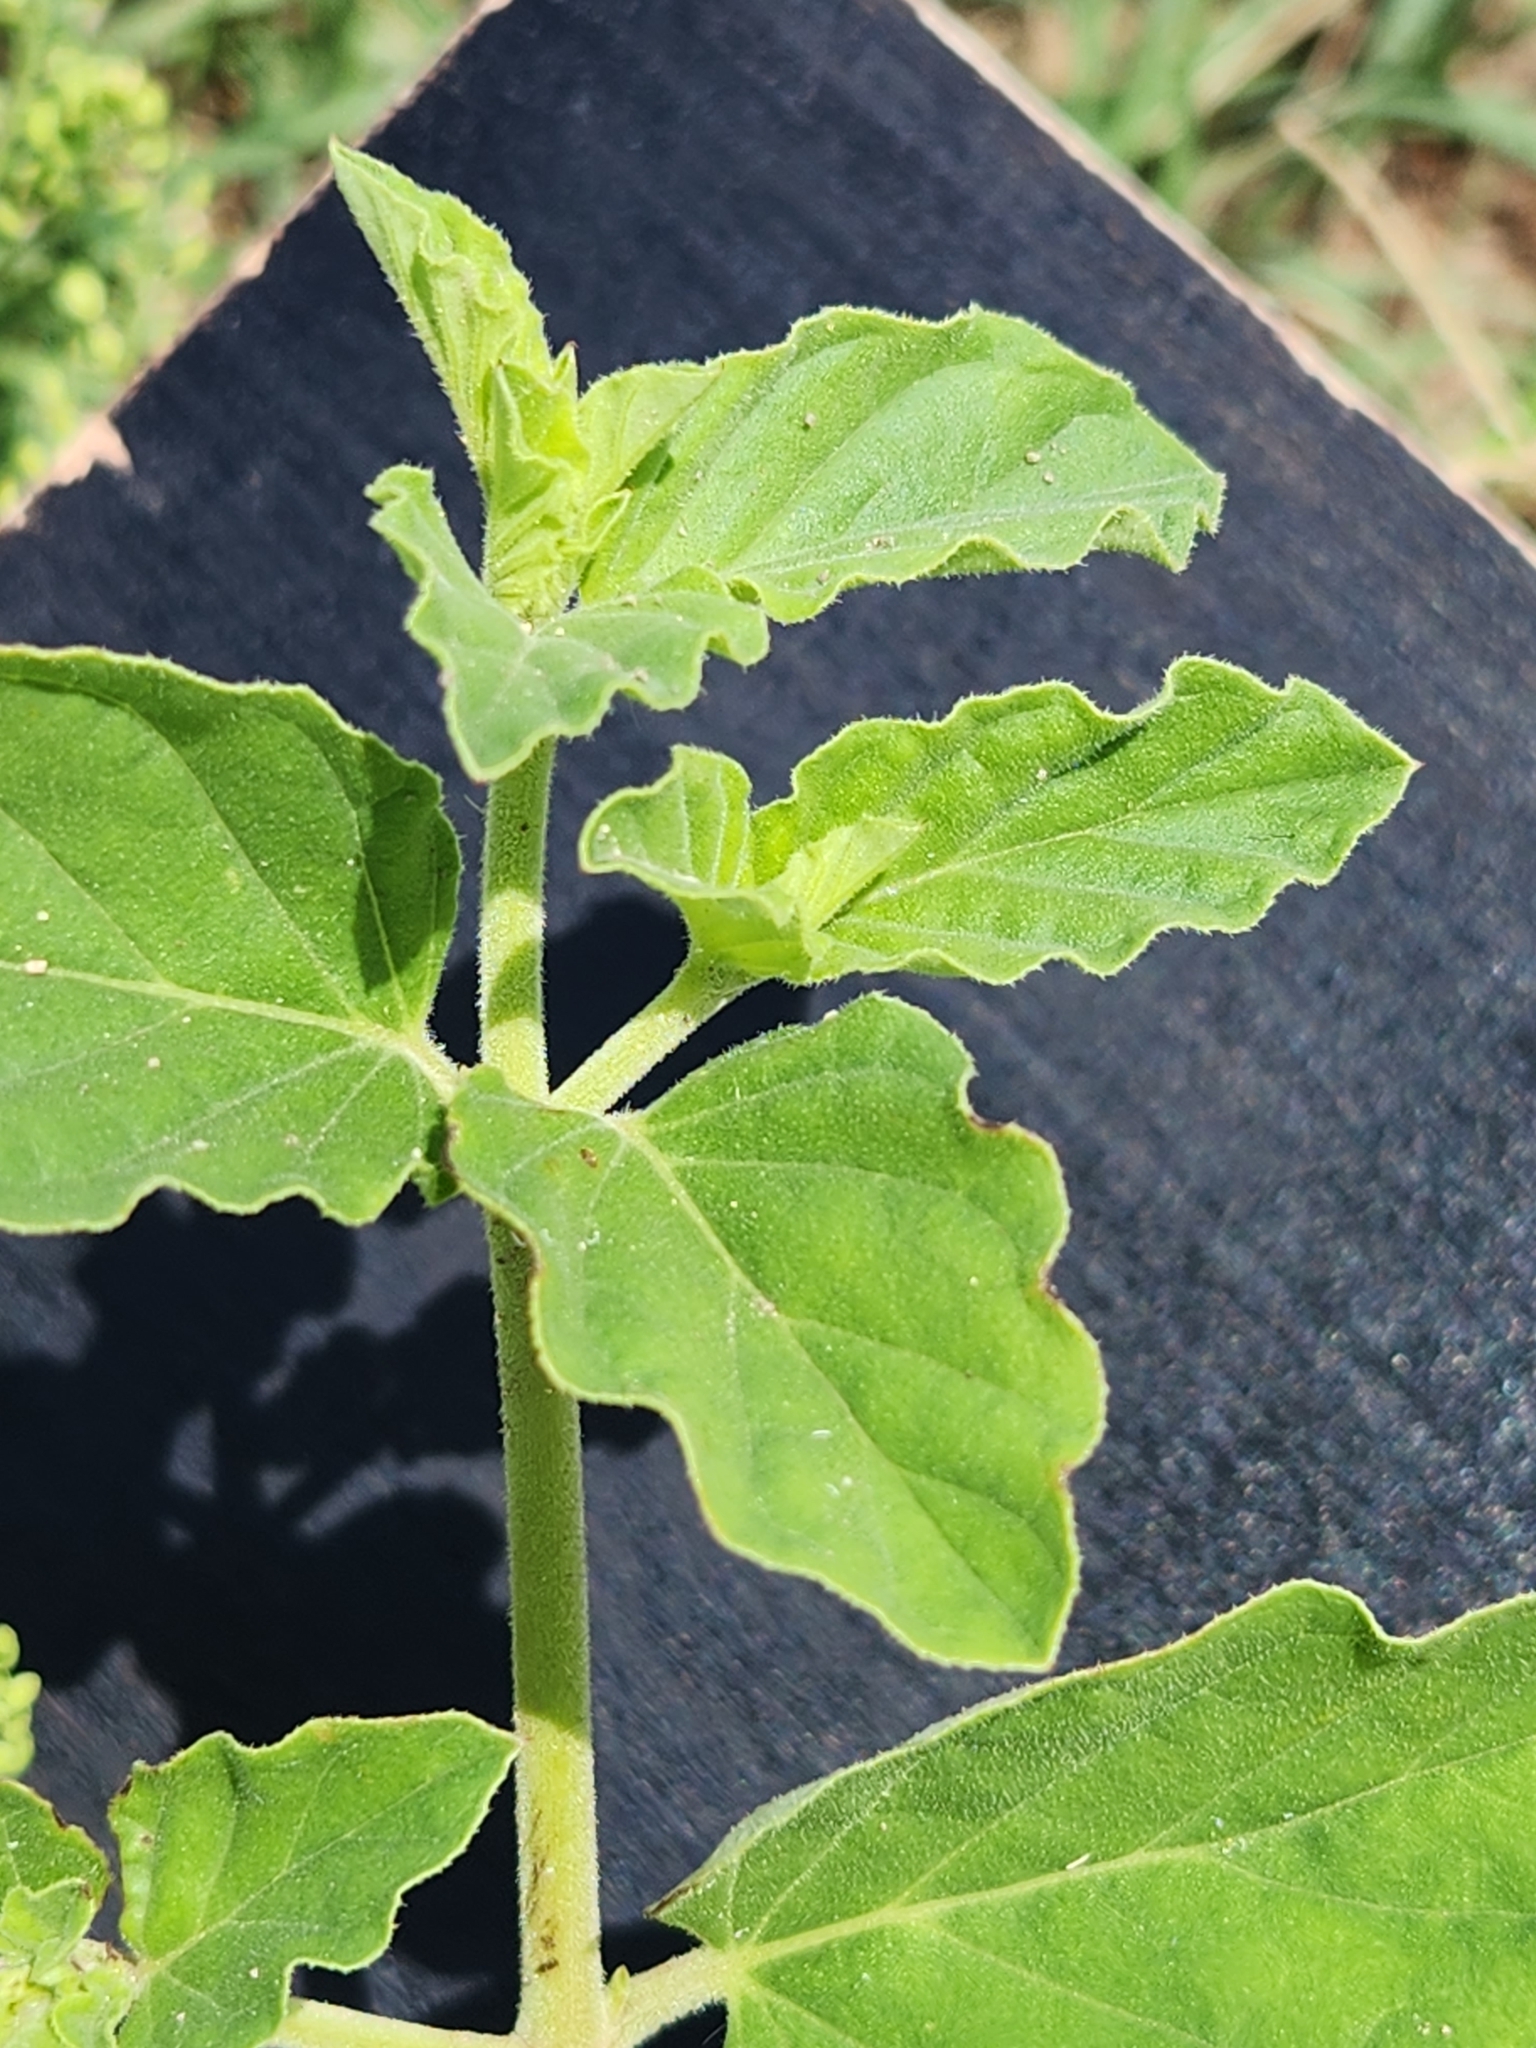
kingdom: Plantae
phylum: Tracheophyta
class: Magnoliopsida
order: Caryophyllales
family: Nyctaginaceae
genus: Boerhavia
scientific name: Boerhavia coccinea
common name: Scarlet spiderling
